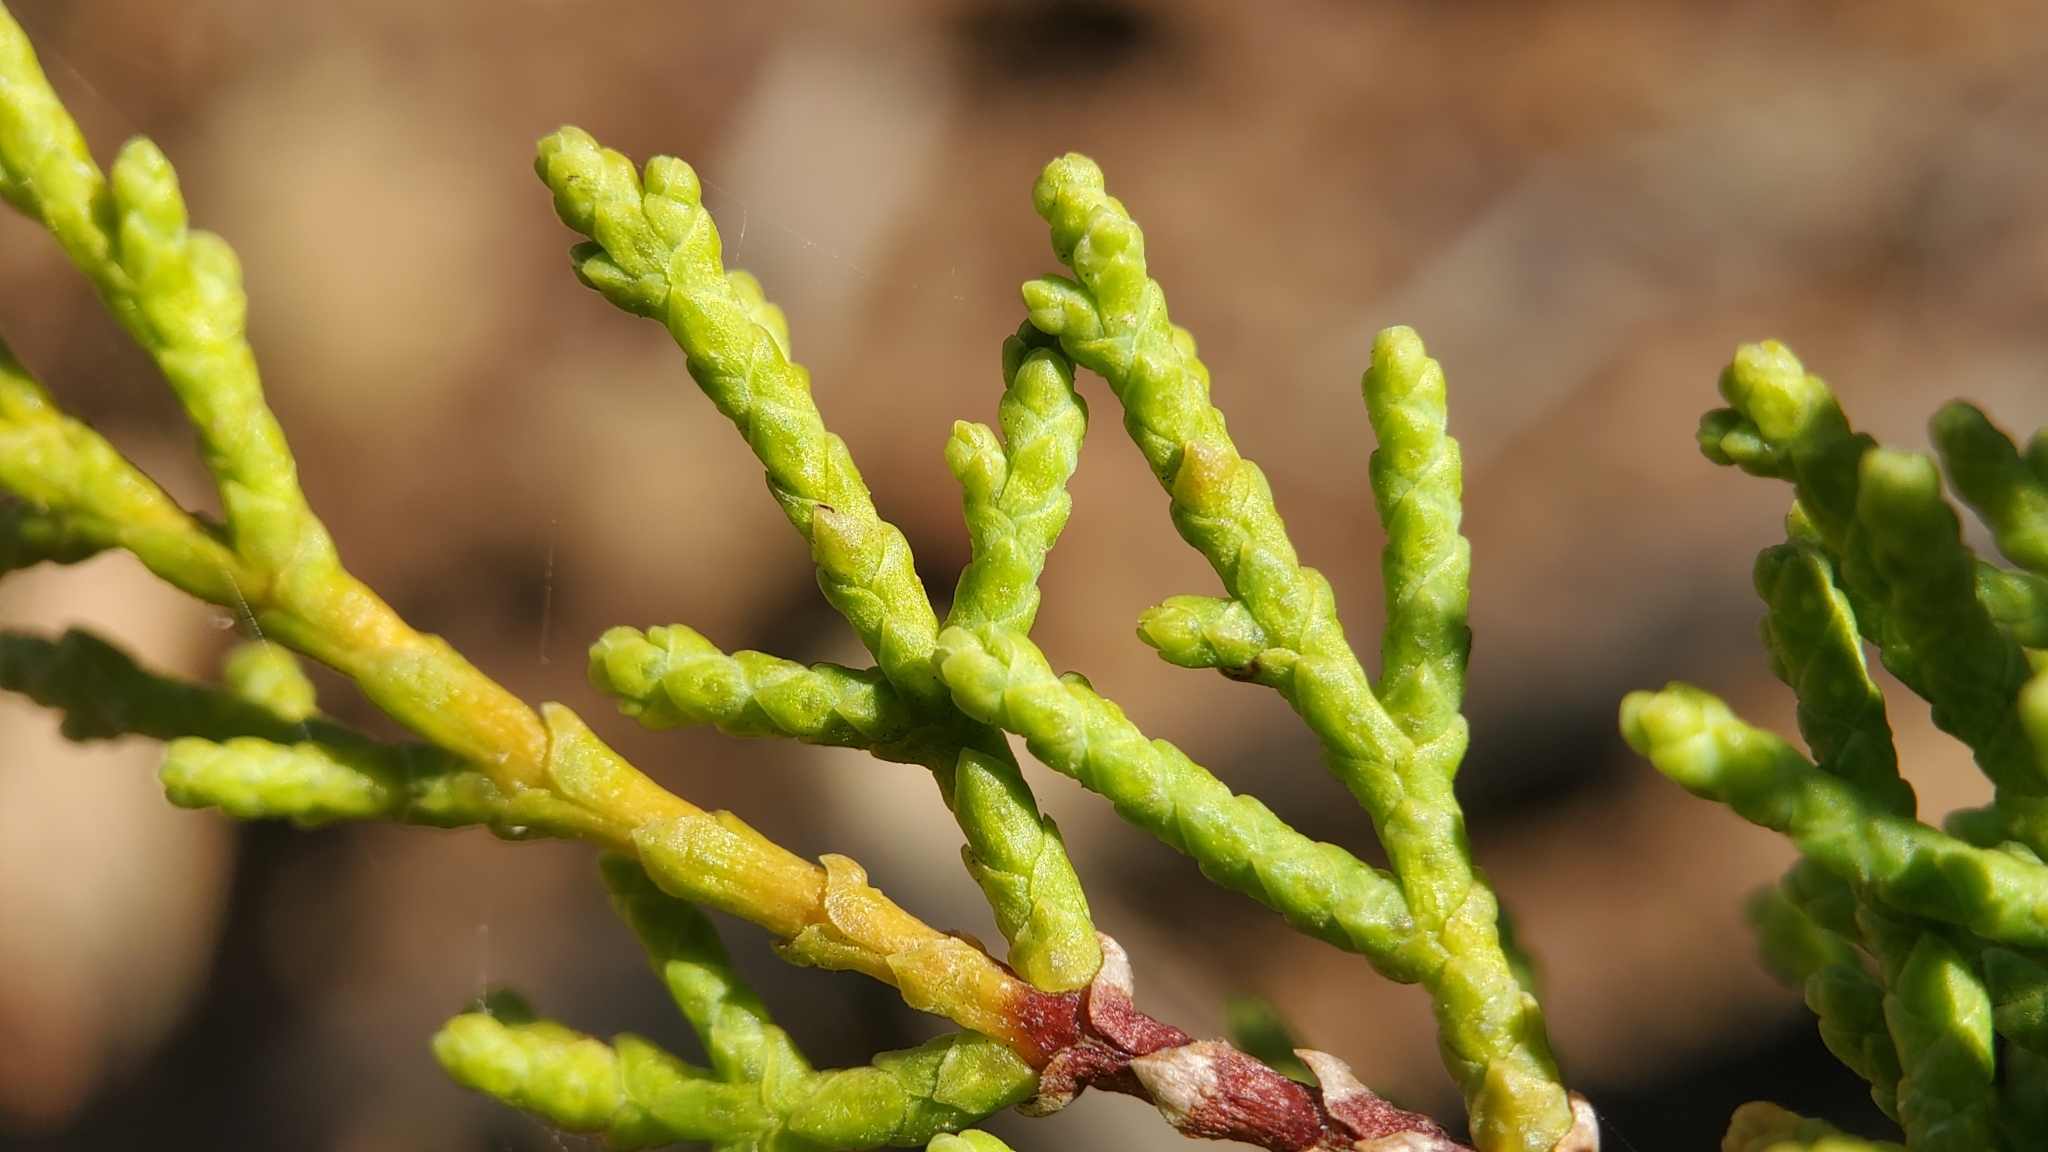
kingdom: Plantae
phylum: Tracheophyta
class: Pinopsida
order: Pinales
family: Cupressaceae
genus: Cupressus
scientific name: Cupressus guadalupensis
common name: Forbes cypress
